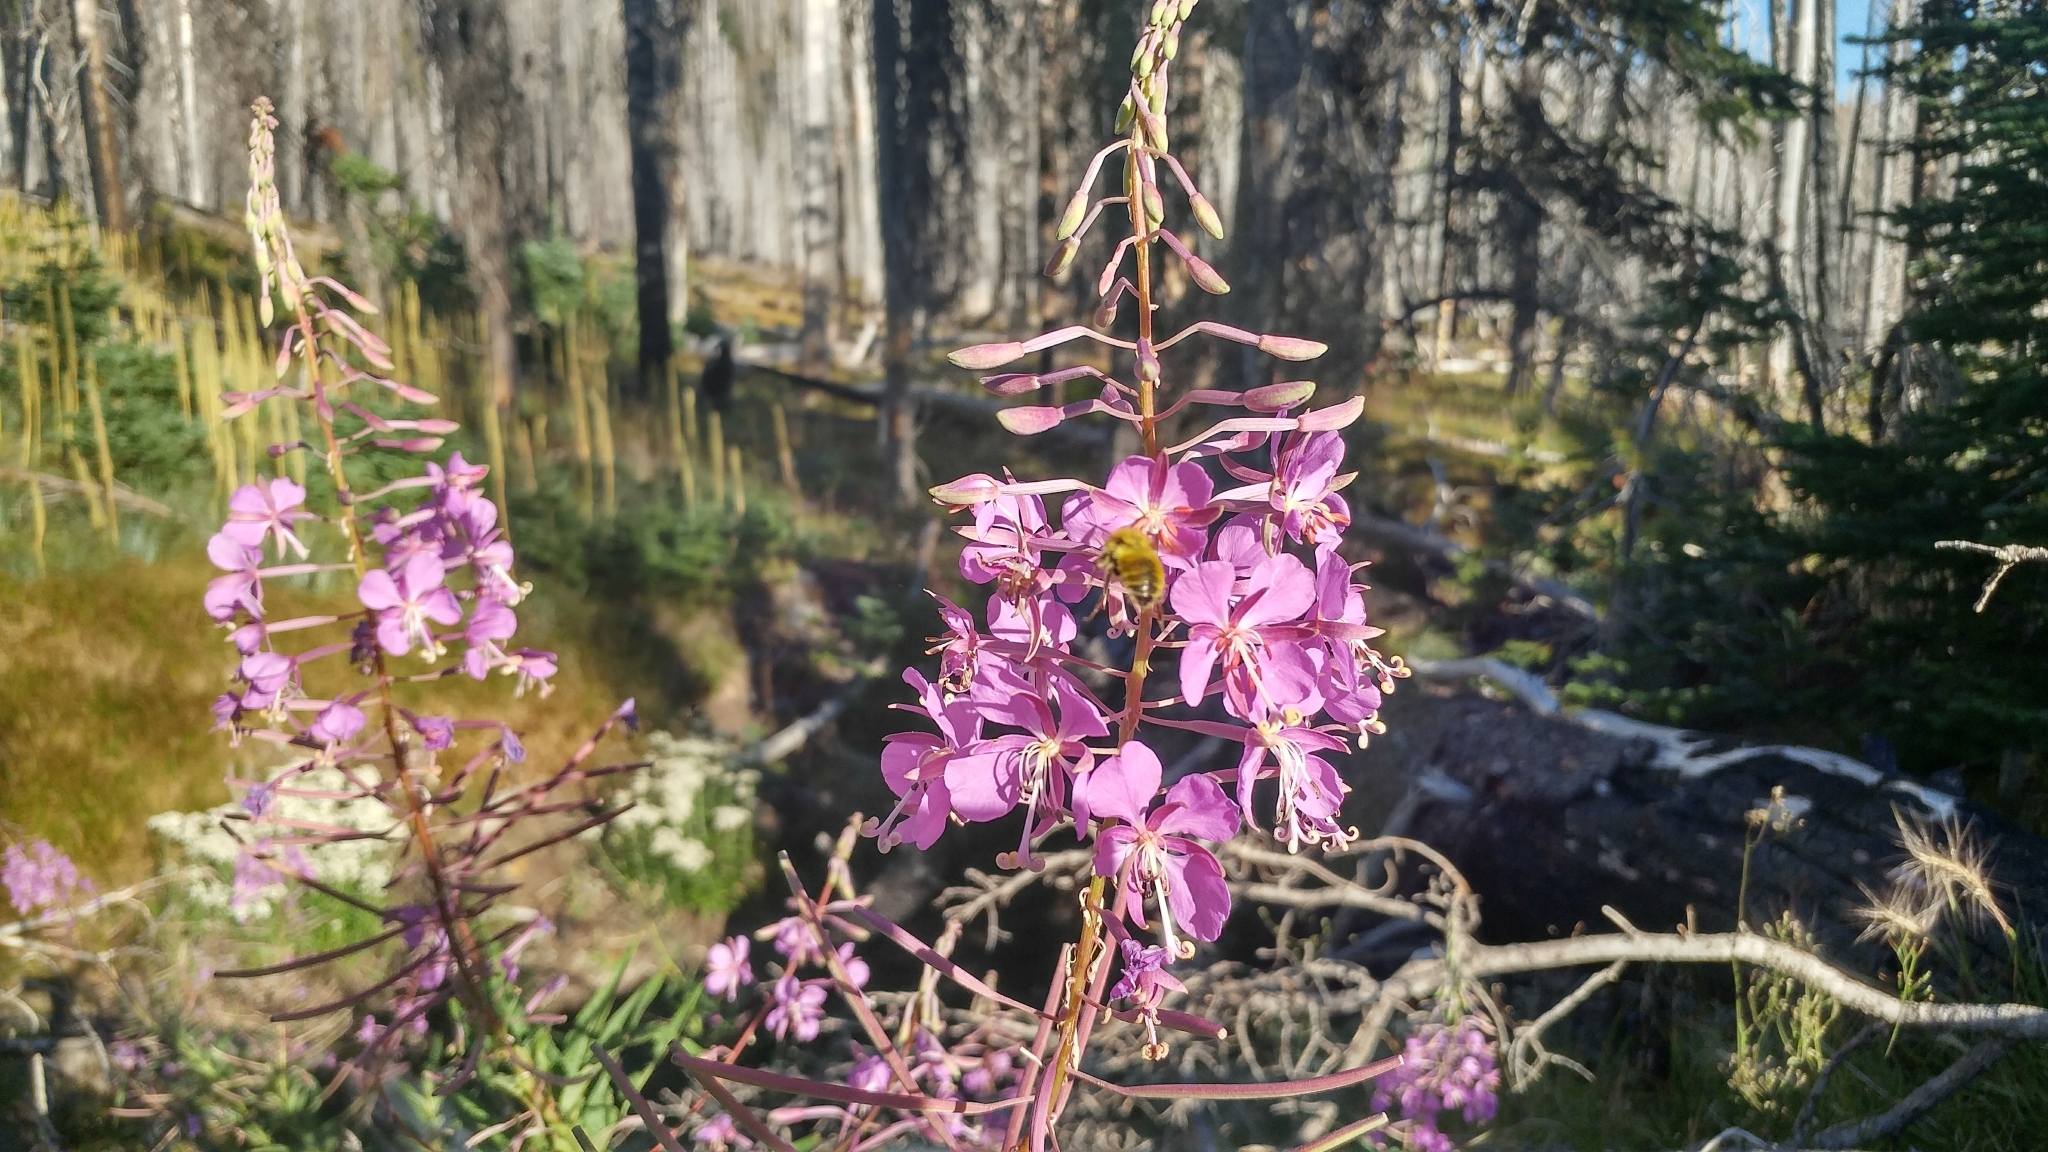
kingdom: Plantae
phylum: Tracheophyta
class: Magnoliopsida
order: Myrtales
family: Onagraceae
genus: Chamaenerion
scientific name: Chamaenerion angustifolium
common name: Fireweed
